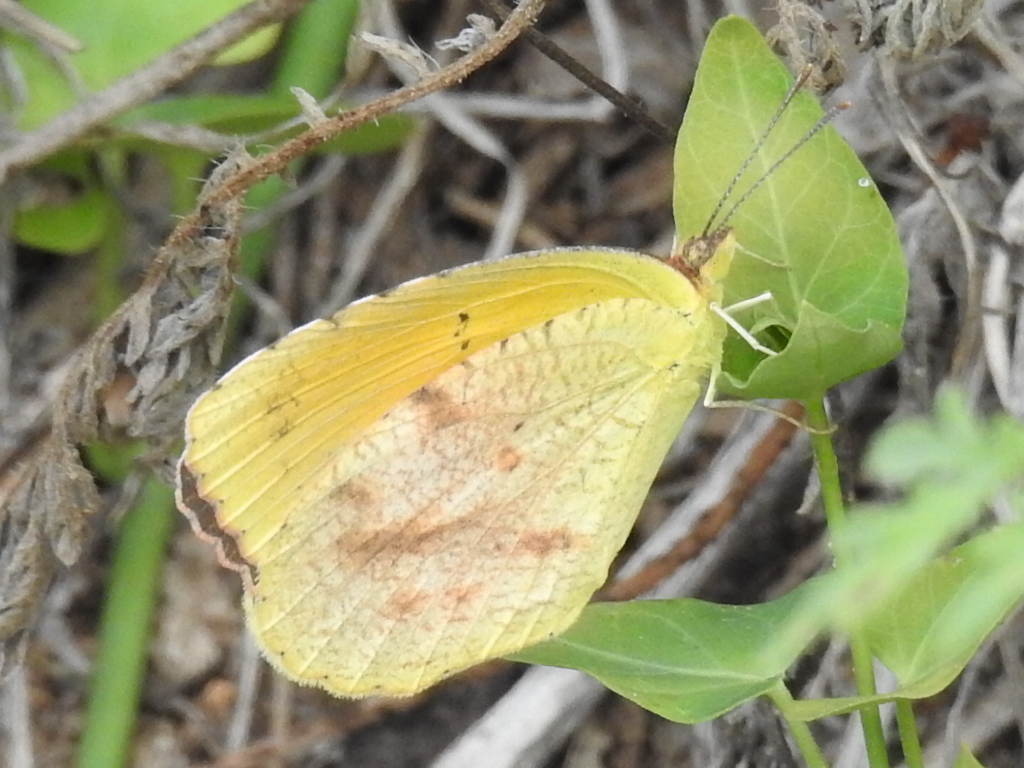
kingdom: Animalia
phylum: Arthropoda
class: Insecta
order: Lepidoptera
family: Pieridae
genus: Abaeis
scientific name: Abaeis nicippe
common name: Sleepy orange
